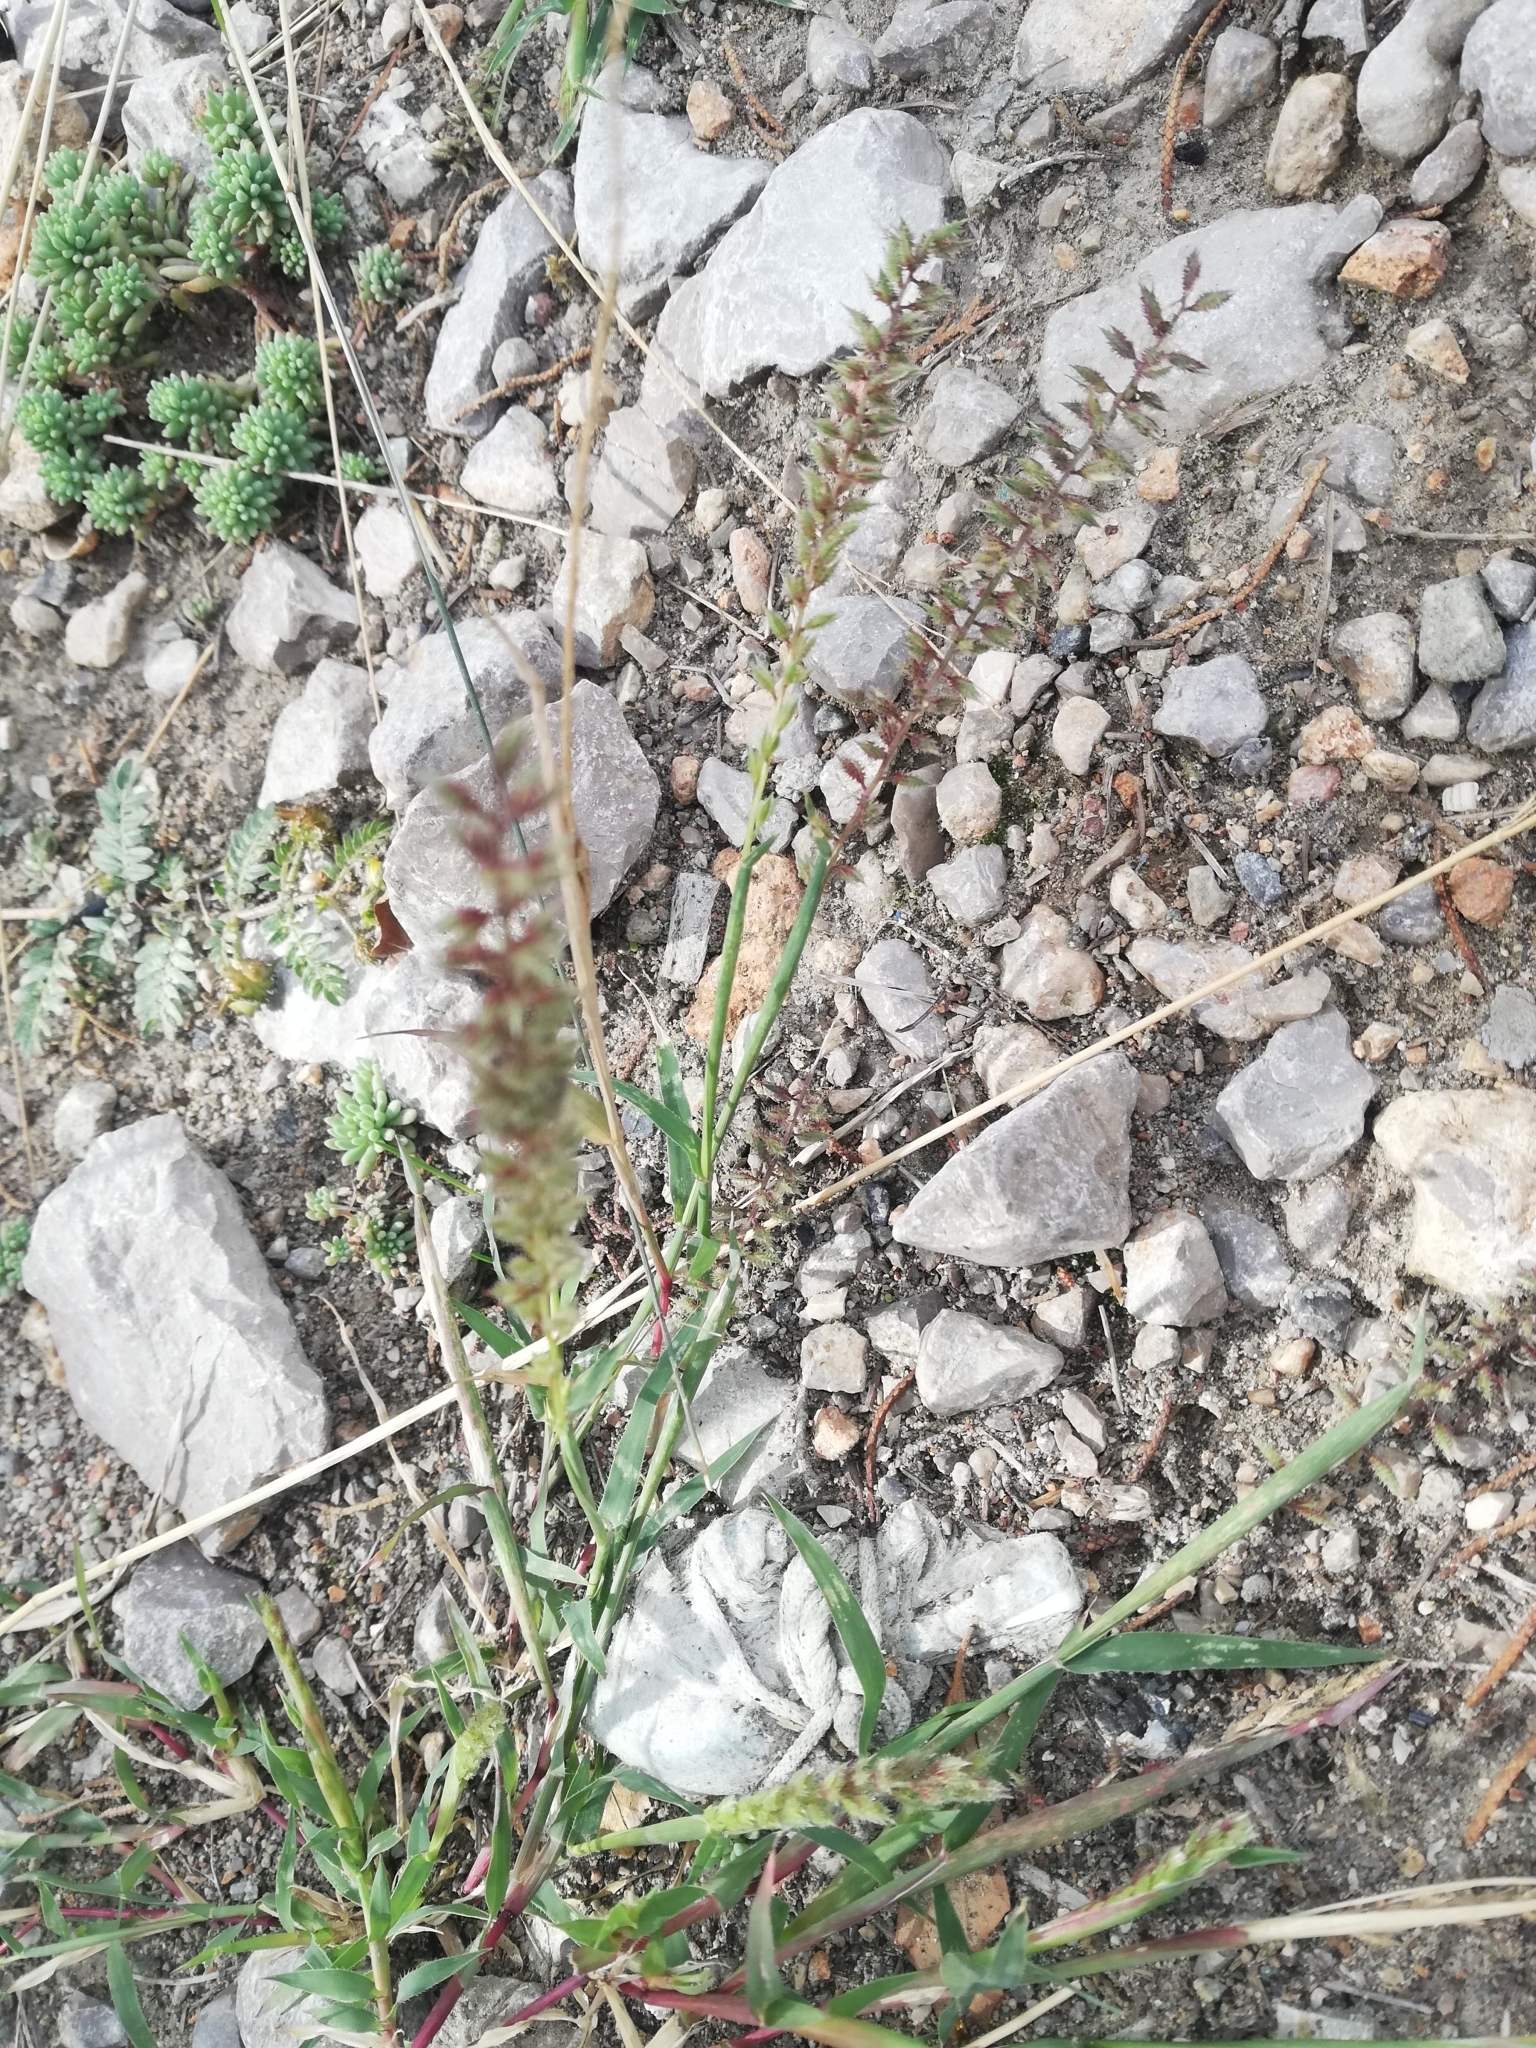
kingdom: Plantae
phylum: Tracheophyta
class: Liliopsida
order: Poales
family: Poaceae
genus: Tragus
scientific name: Tragus racemosus
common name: European bur-grass
